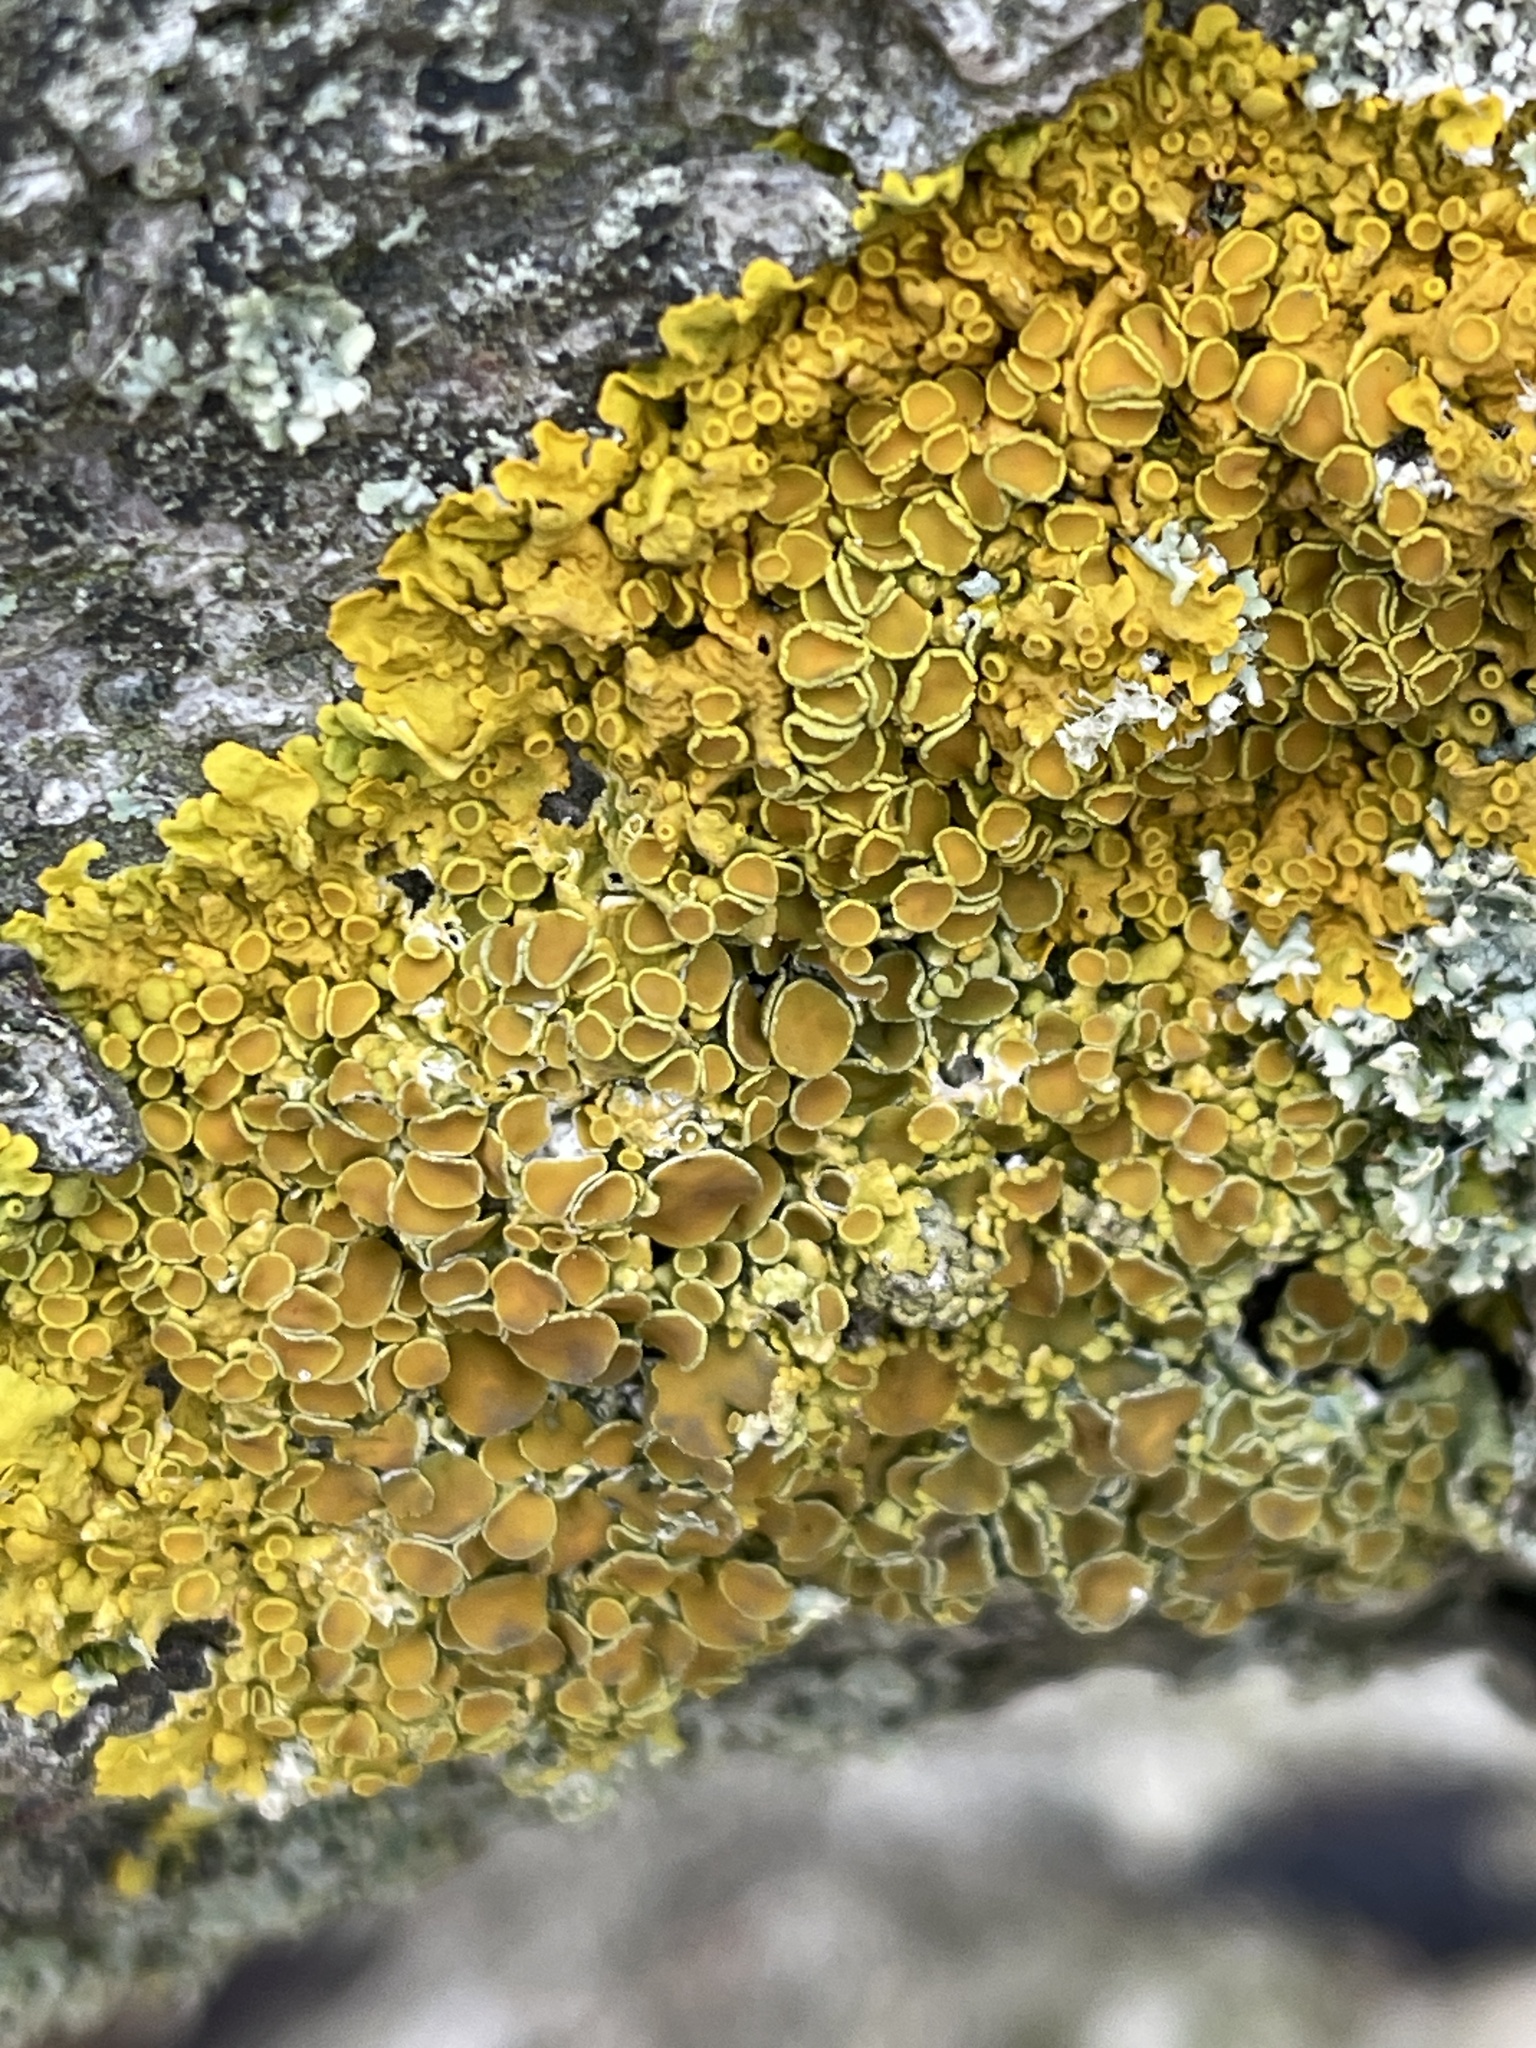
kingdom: Fungi
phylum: Ascomycota
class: Lecanoromycetes
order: Teloschistales
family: Teloschistaceae
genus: Xanthoria
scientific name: Xanthoria parietina
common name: Common orange lichen
